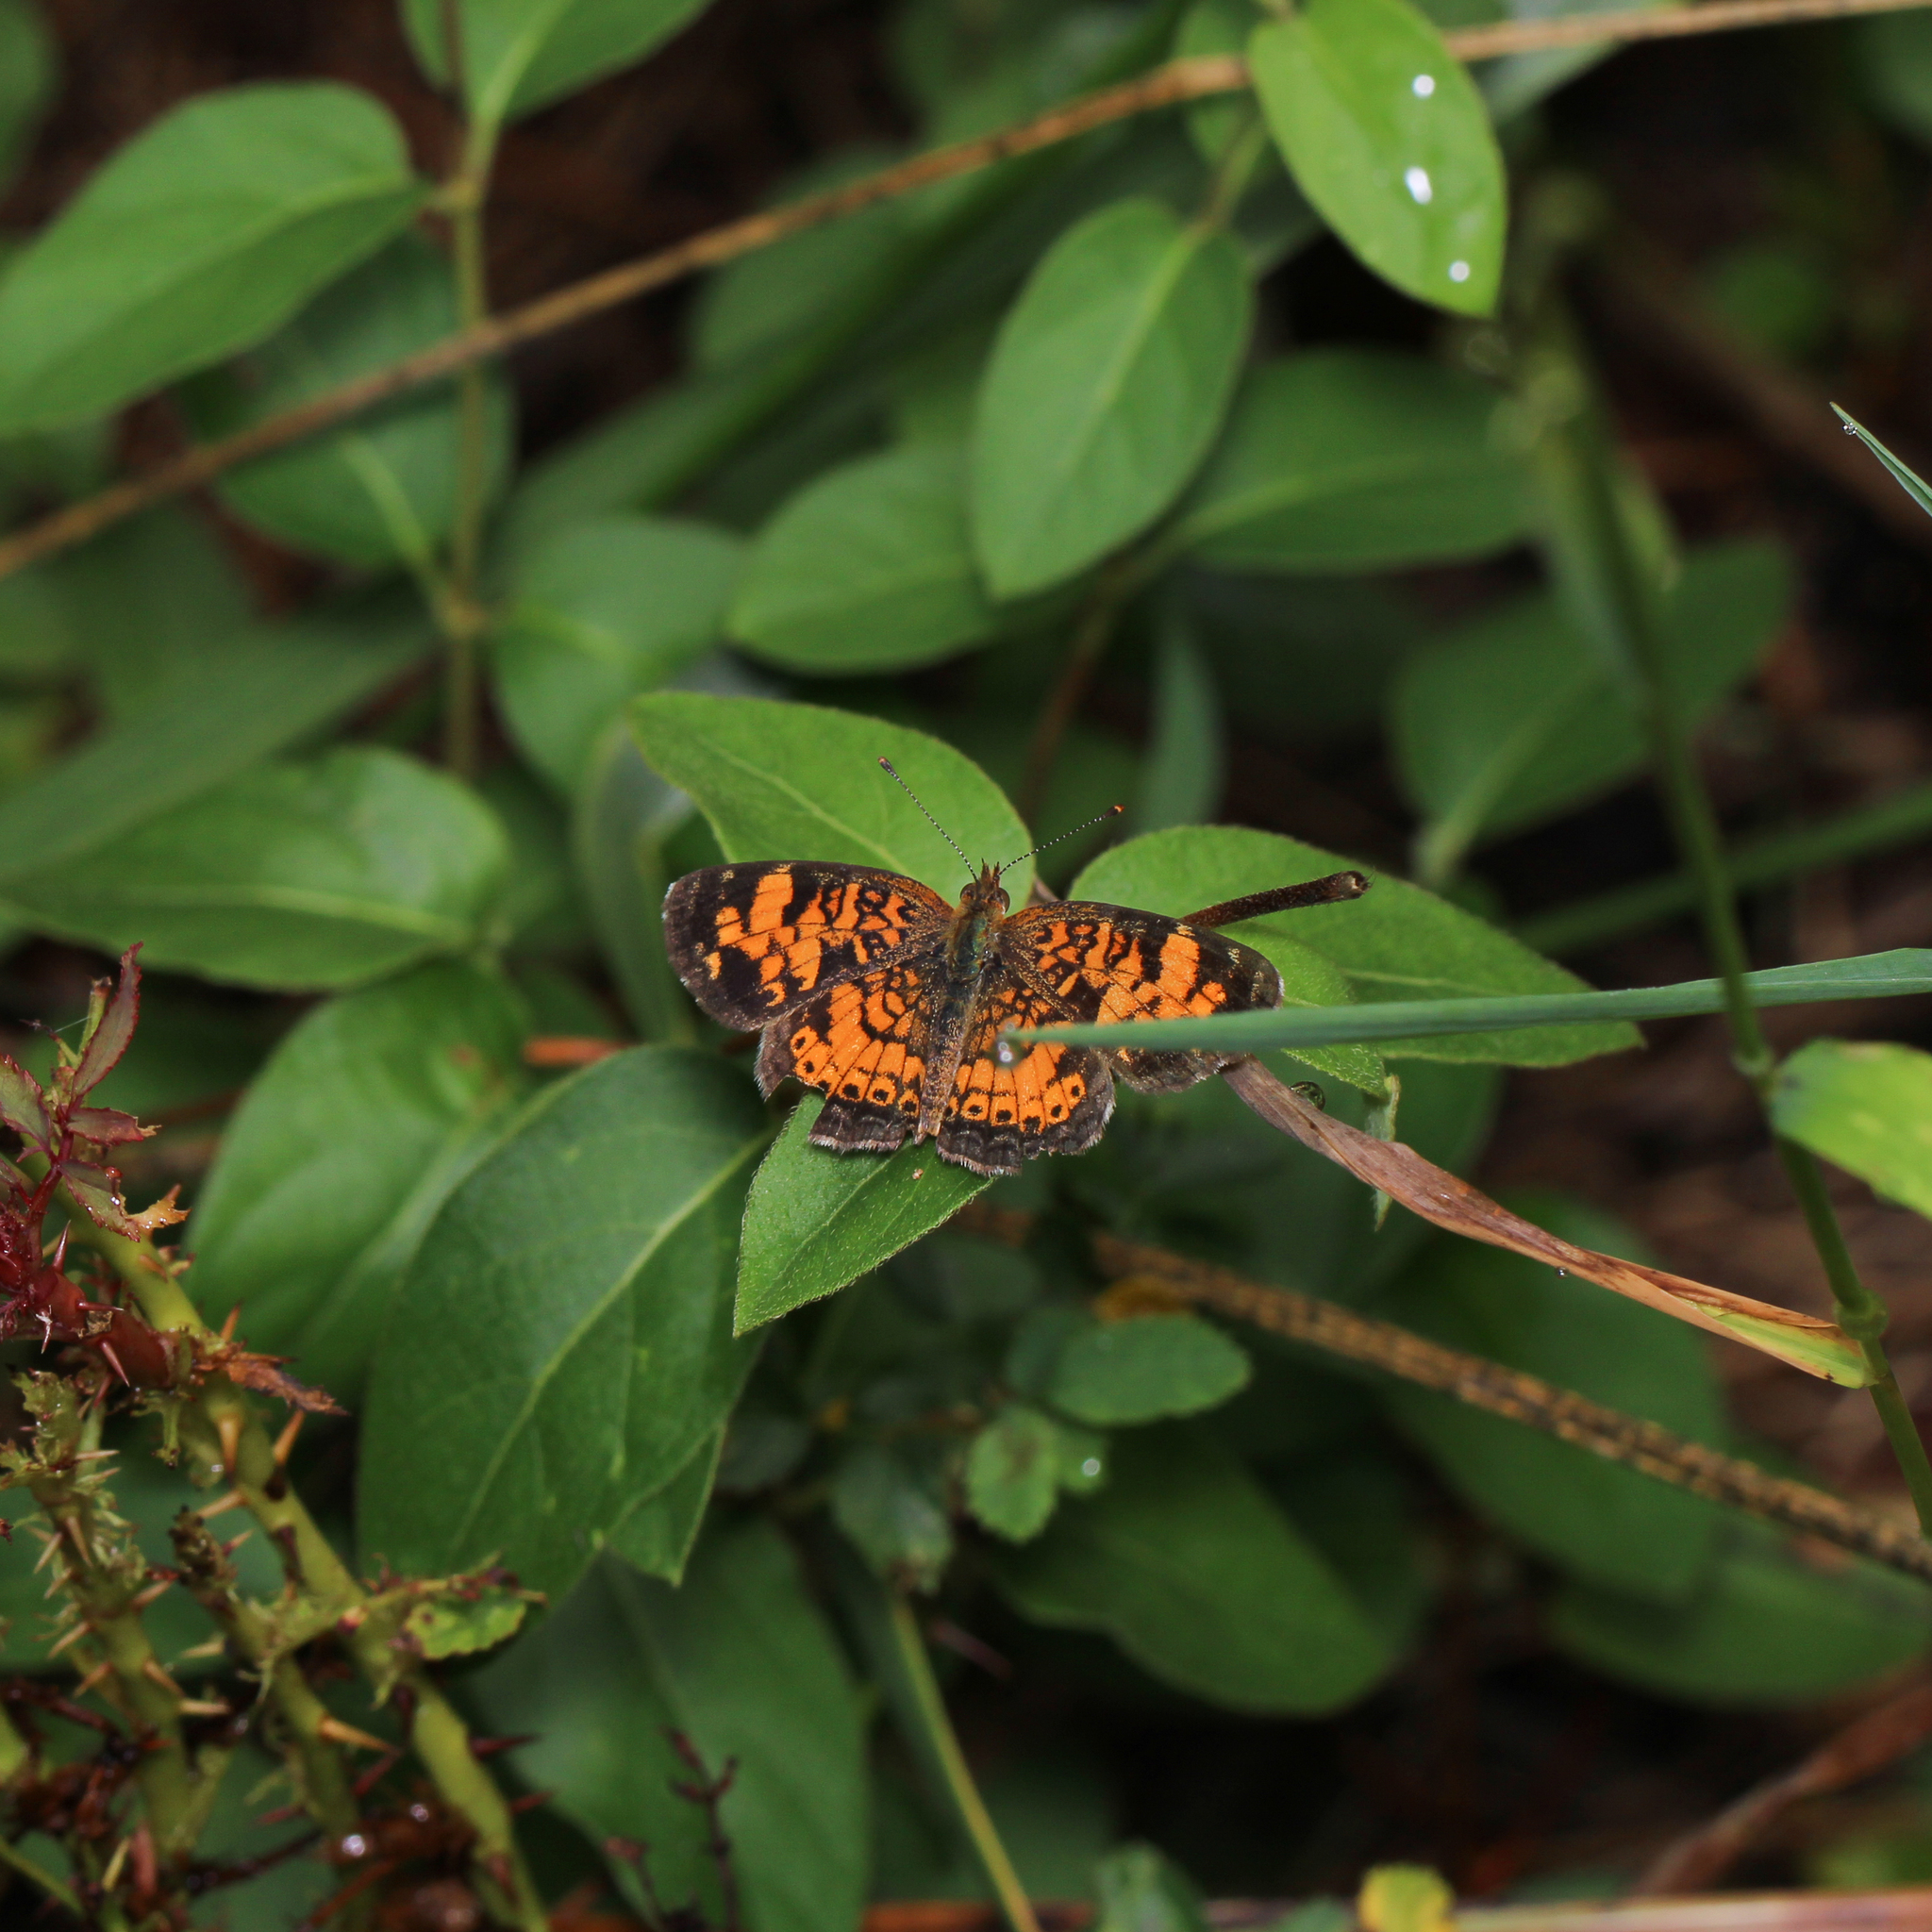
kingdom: Animalia
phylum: Arthropoda
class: Insecta
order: Lepidoptera
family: Nymphalidae
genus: Phyciodes
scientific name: Phyciodes tharos
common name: Pearl crescent
